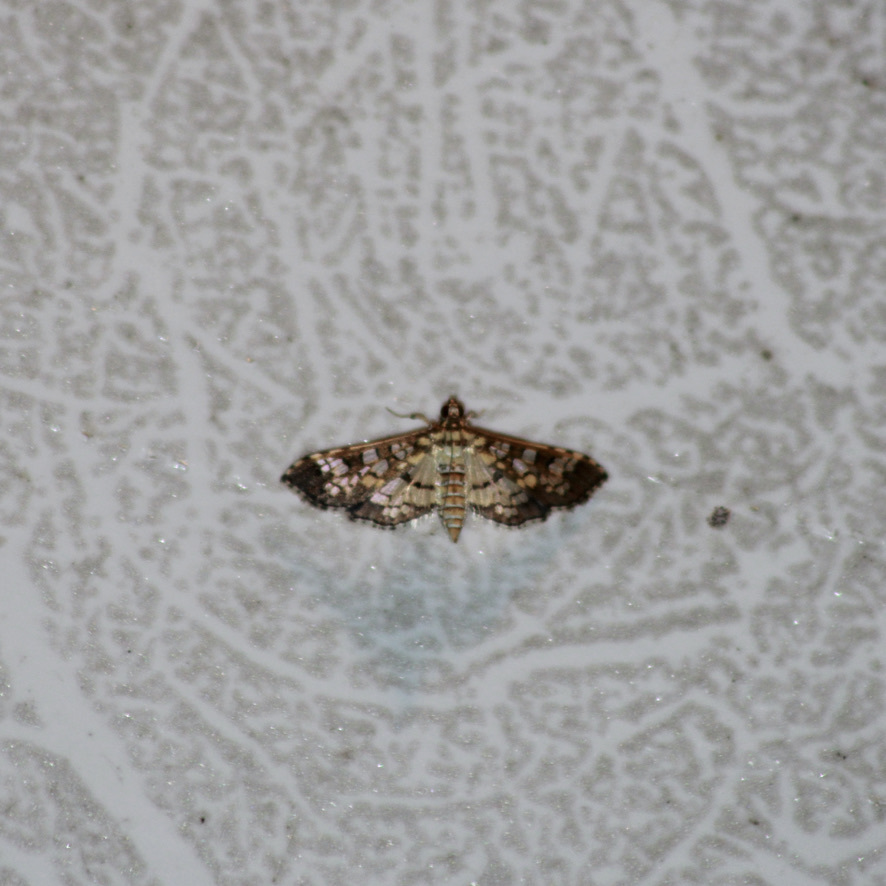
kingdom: Animalia
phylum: Arthropoda
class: Insecta
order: Lepidoptera
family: Crambidae
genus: Samea
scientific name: Samea ecclesialis
